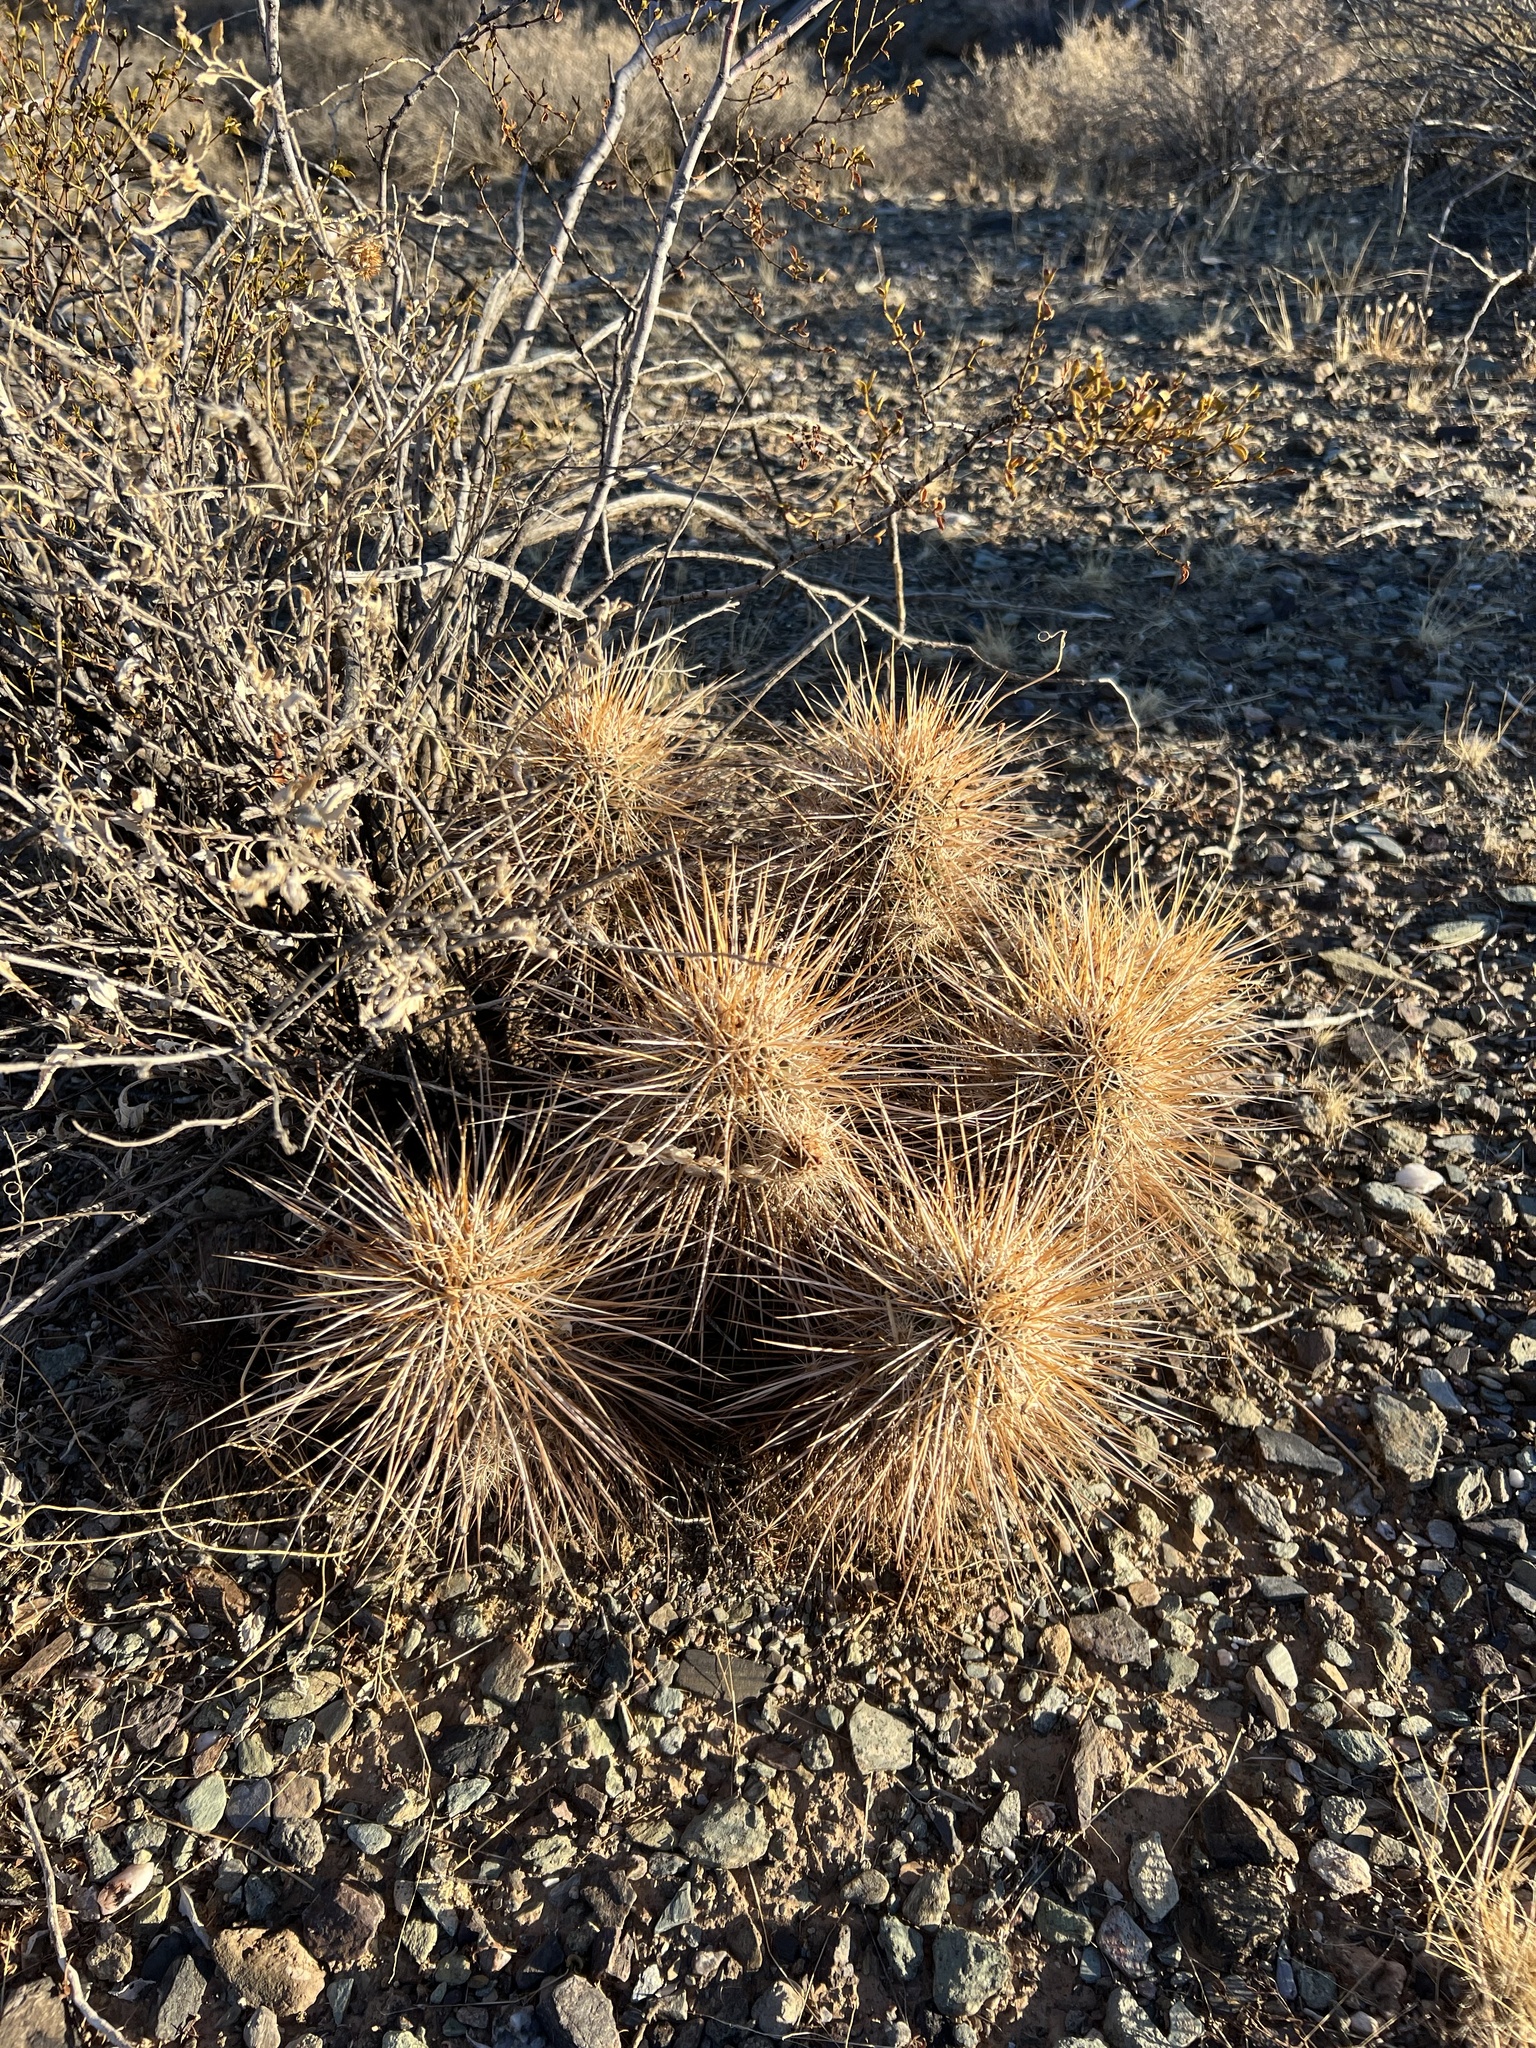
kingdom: Plantae
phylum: Tracheophyta
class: Magnoliopsida
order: Caryophyllales
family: Cactaceae
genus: Echinocereus
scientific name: Echinocereus engelmannii
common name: Engelmann's hedgehog cactus
